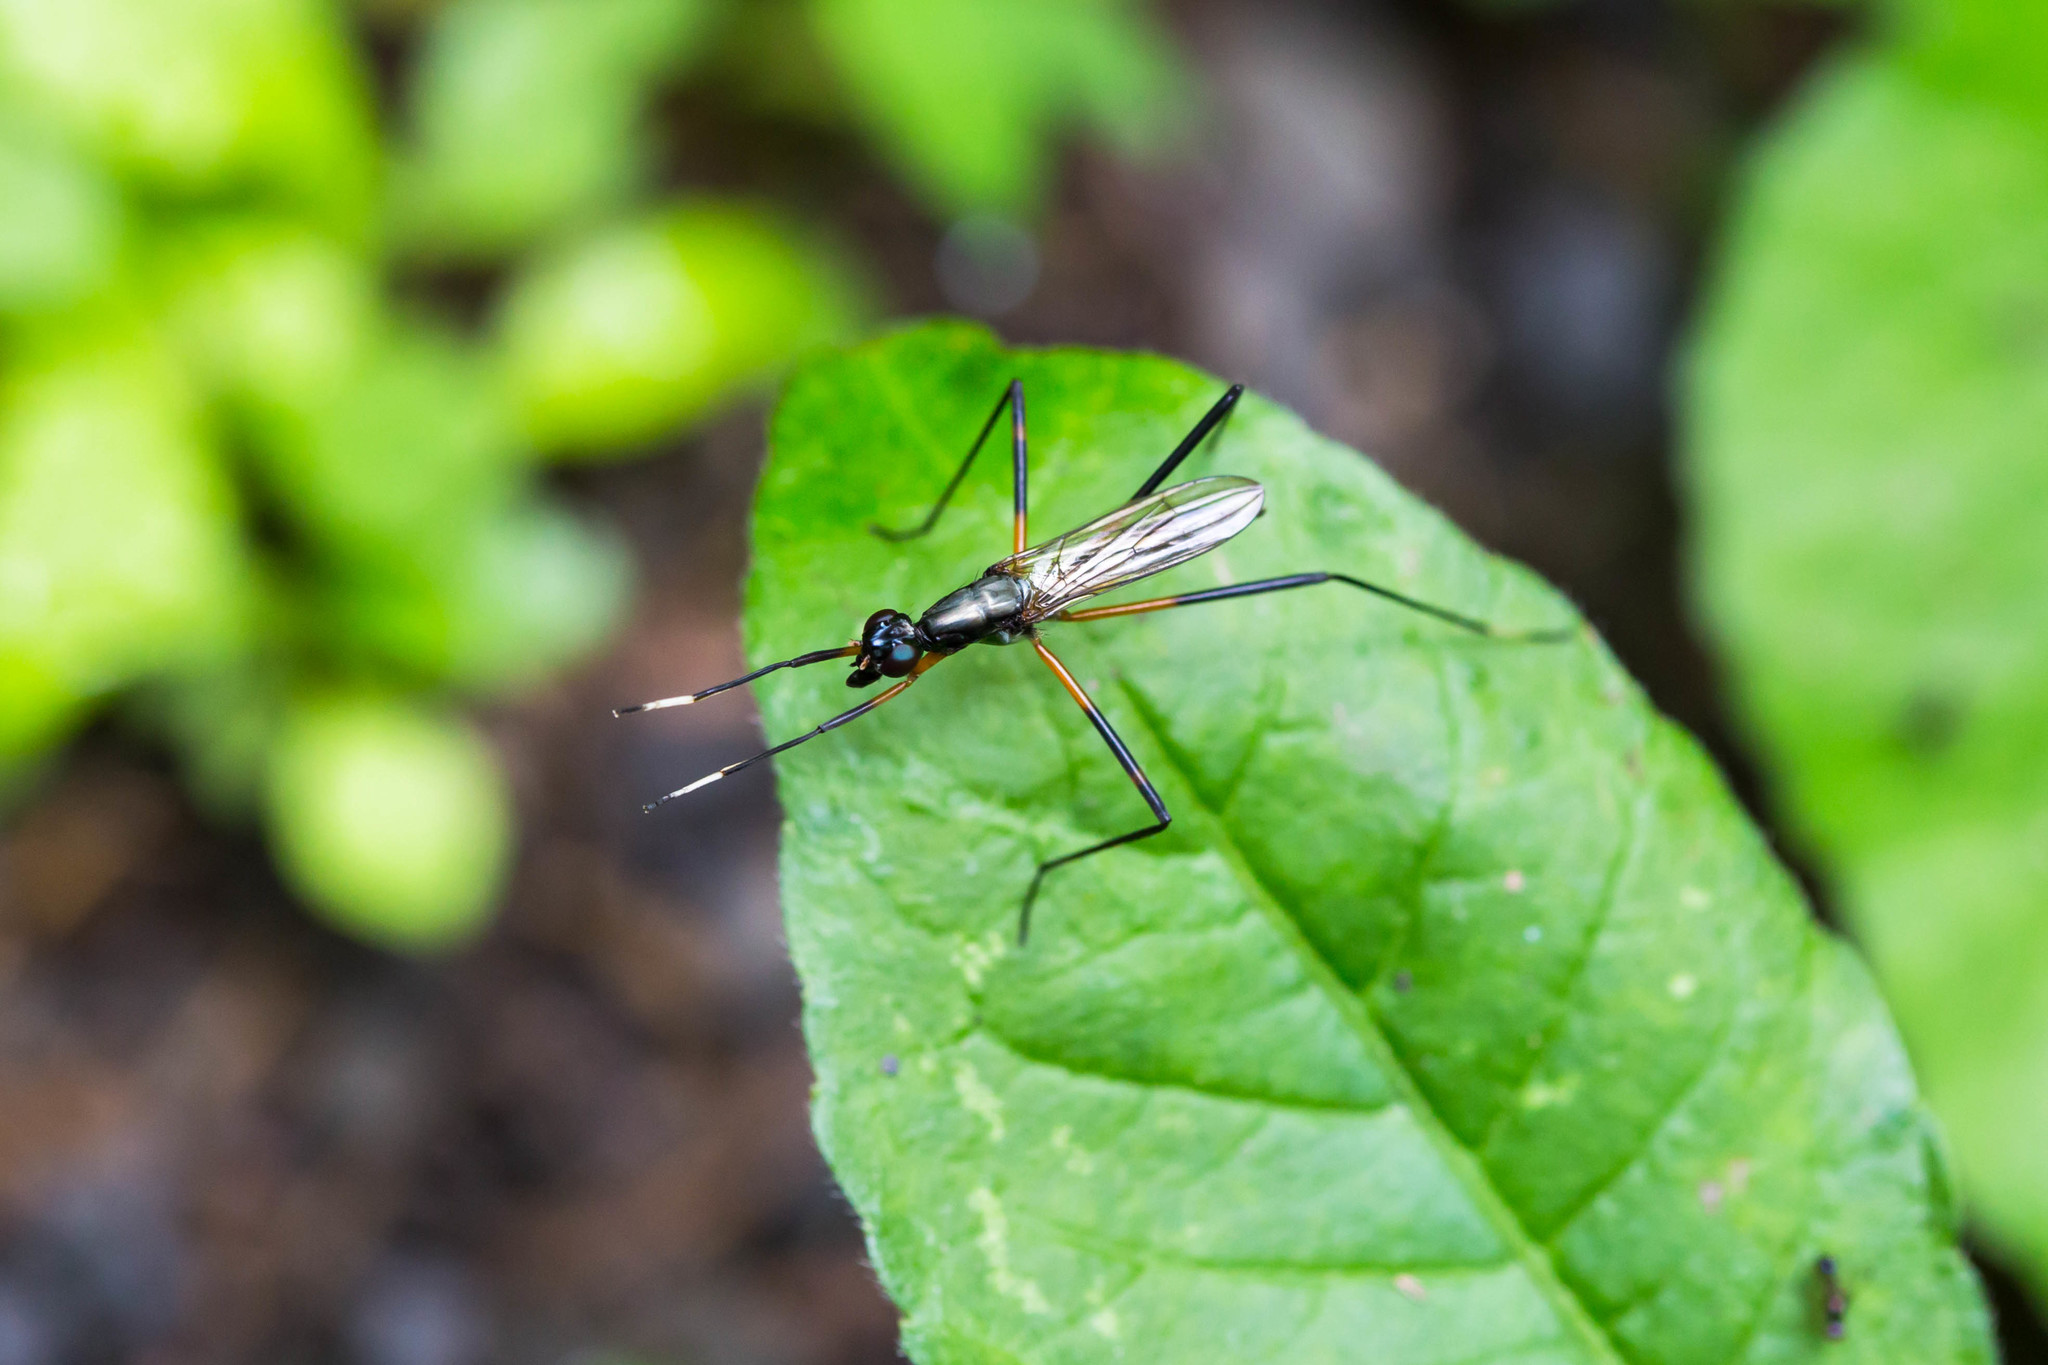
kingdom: Animalia
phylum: Arthropoda
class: Insecta
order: Diptera
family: Micropezidae
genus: Calobatina
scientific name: Calobatina geometra
